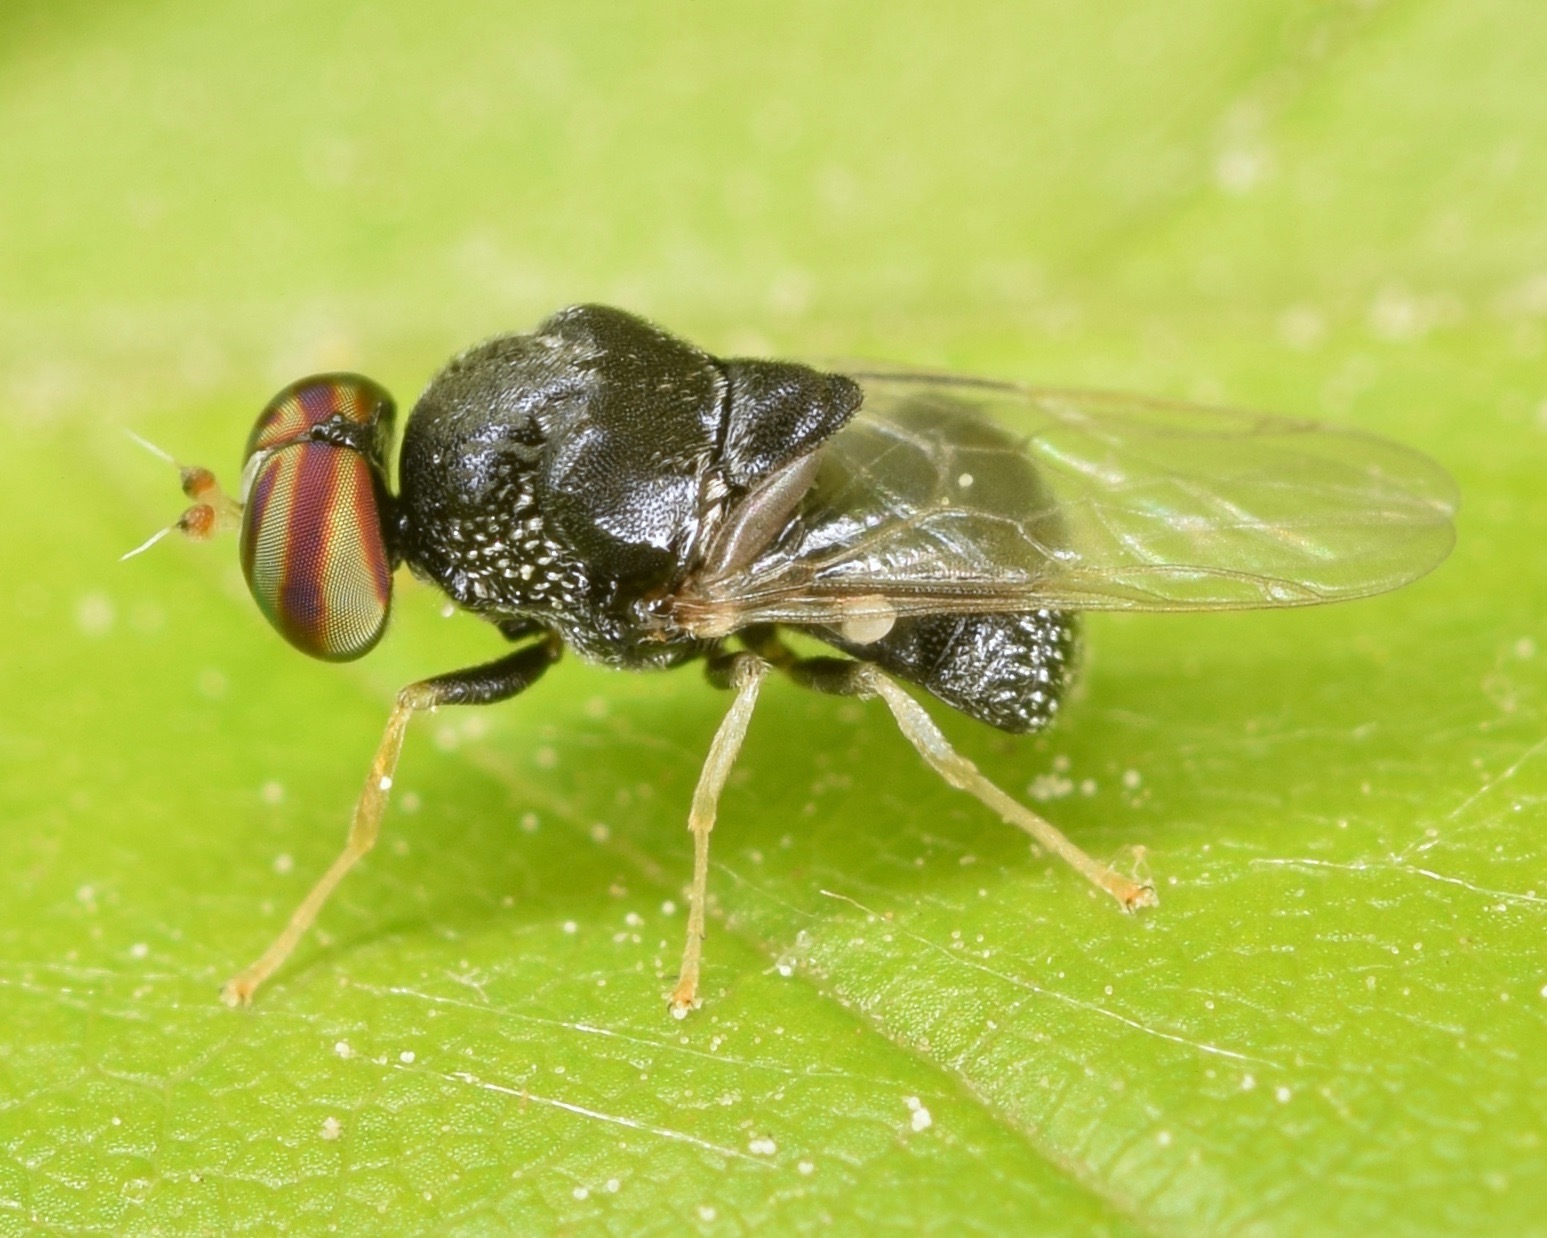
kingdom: Animalia
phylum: Arthropoda
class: Insecta
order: Diptera
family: Stratiomyidae
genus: Gowdeyana
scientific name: Gowdeyana punctifera
